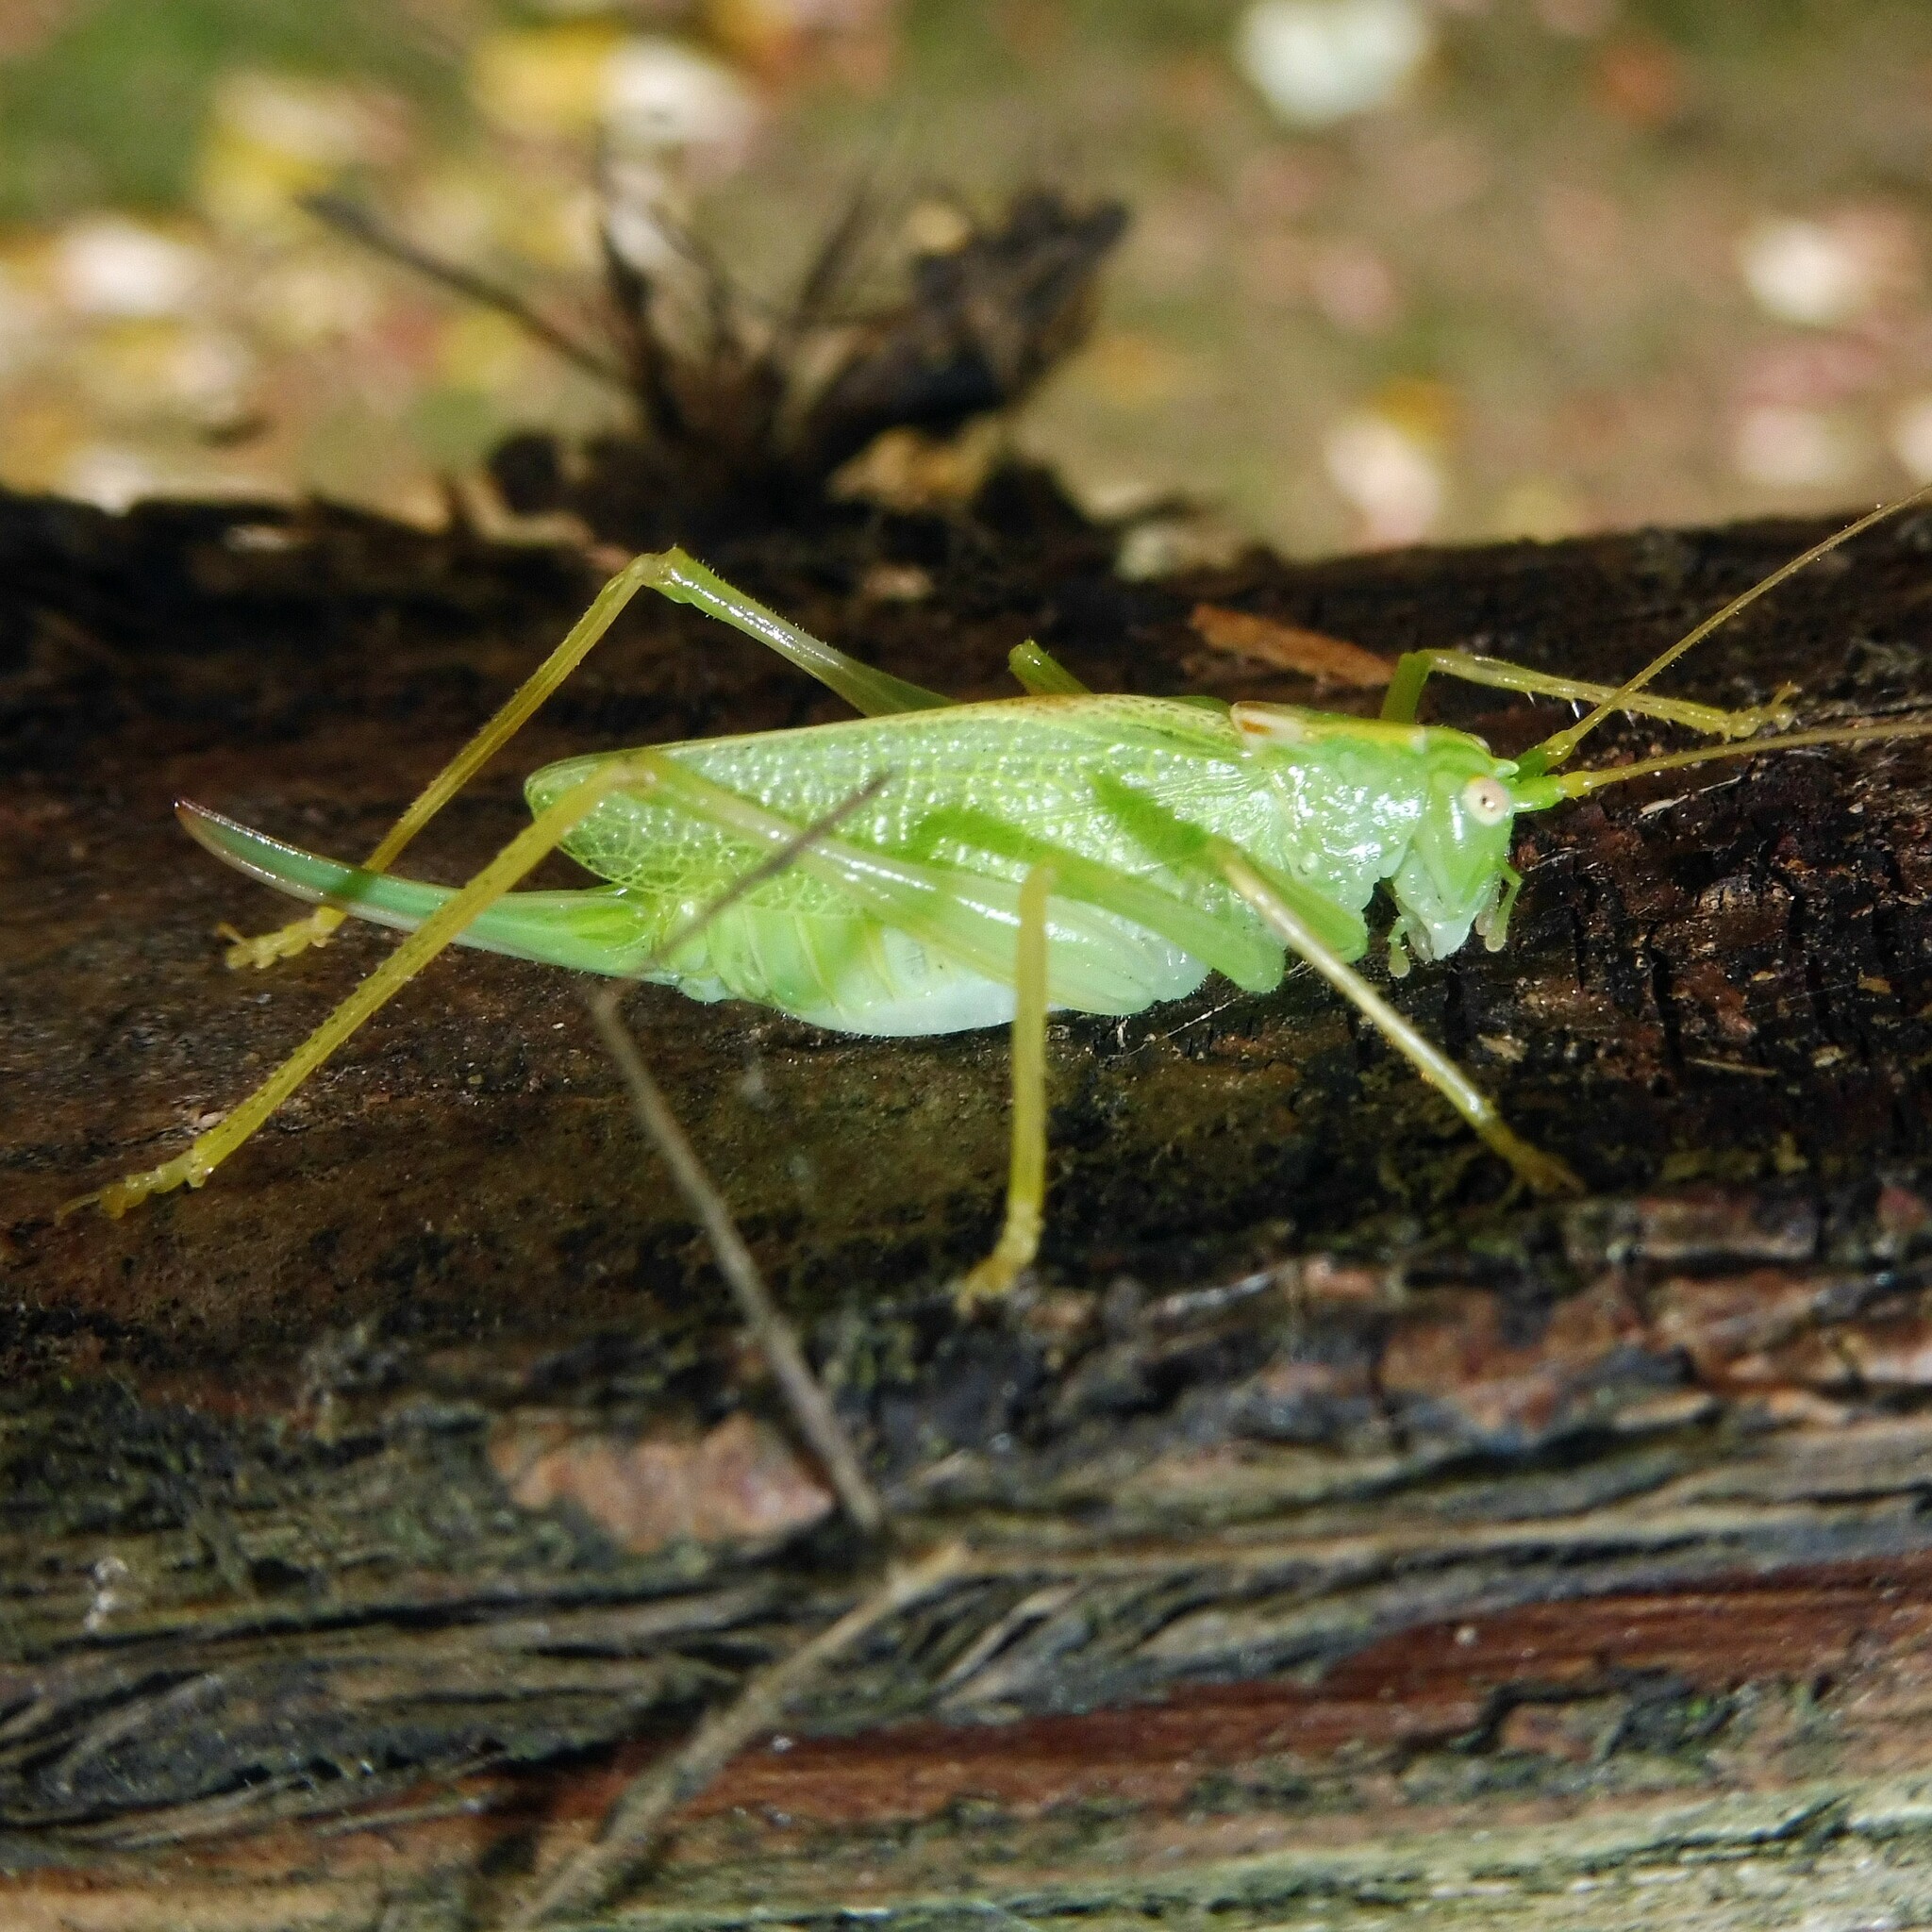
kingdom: Animalia
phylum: Arthropoda
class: Insecta
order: Orthoptera
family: Tettigoniidae
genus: Meconema
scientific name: Meconema thalassinum
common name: Oak bush-cricket
